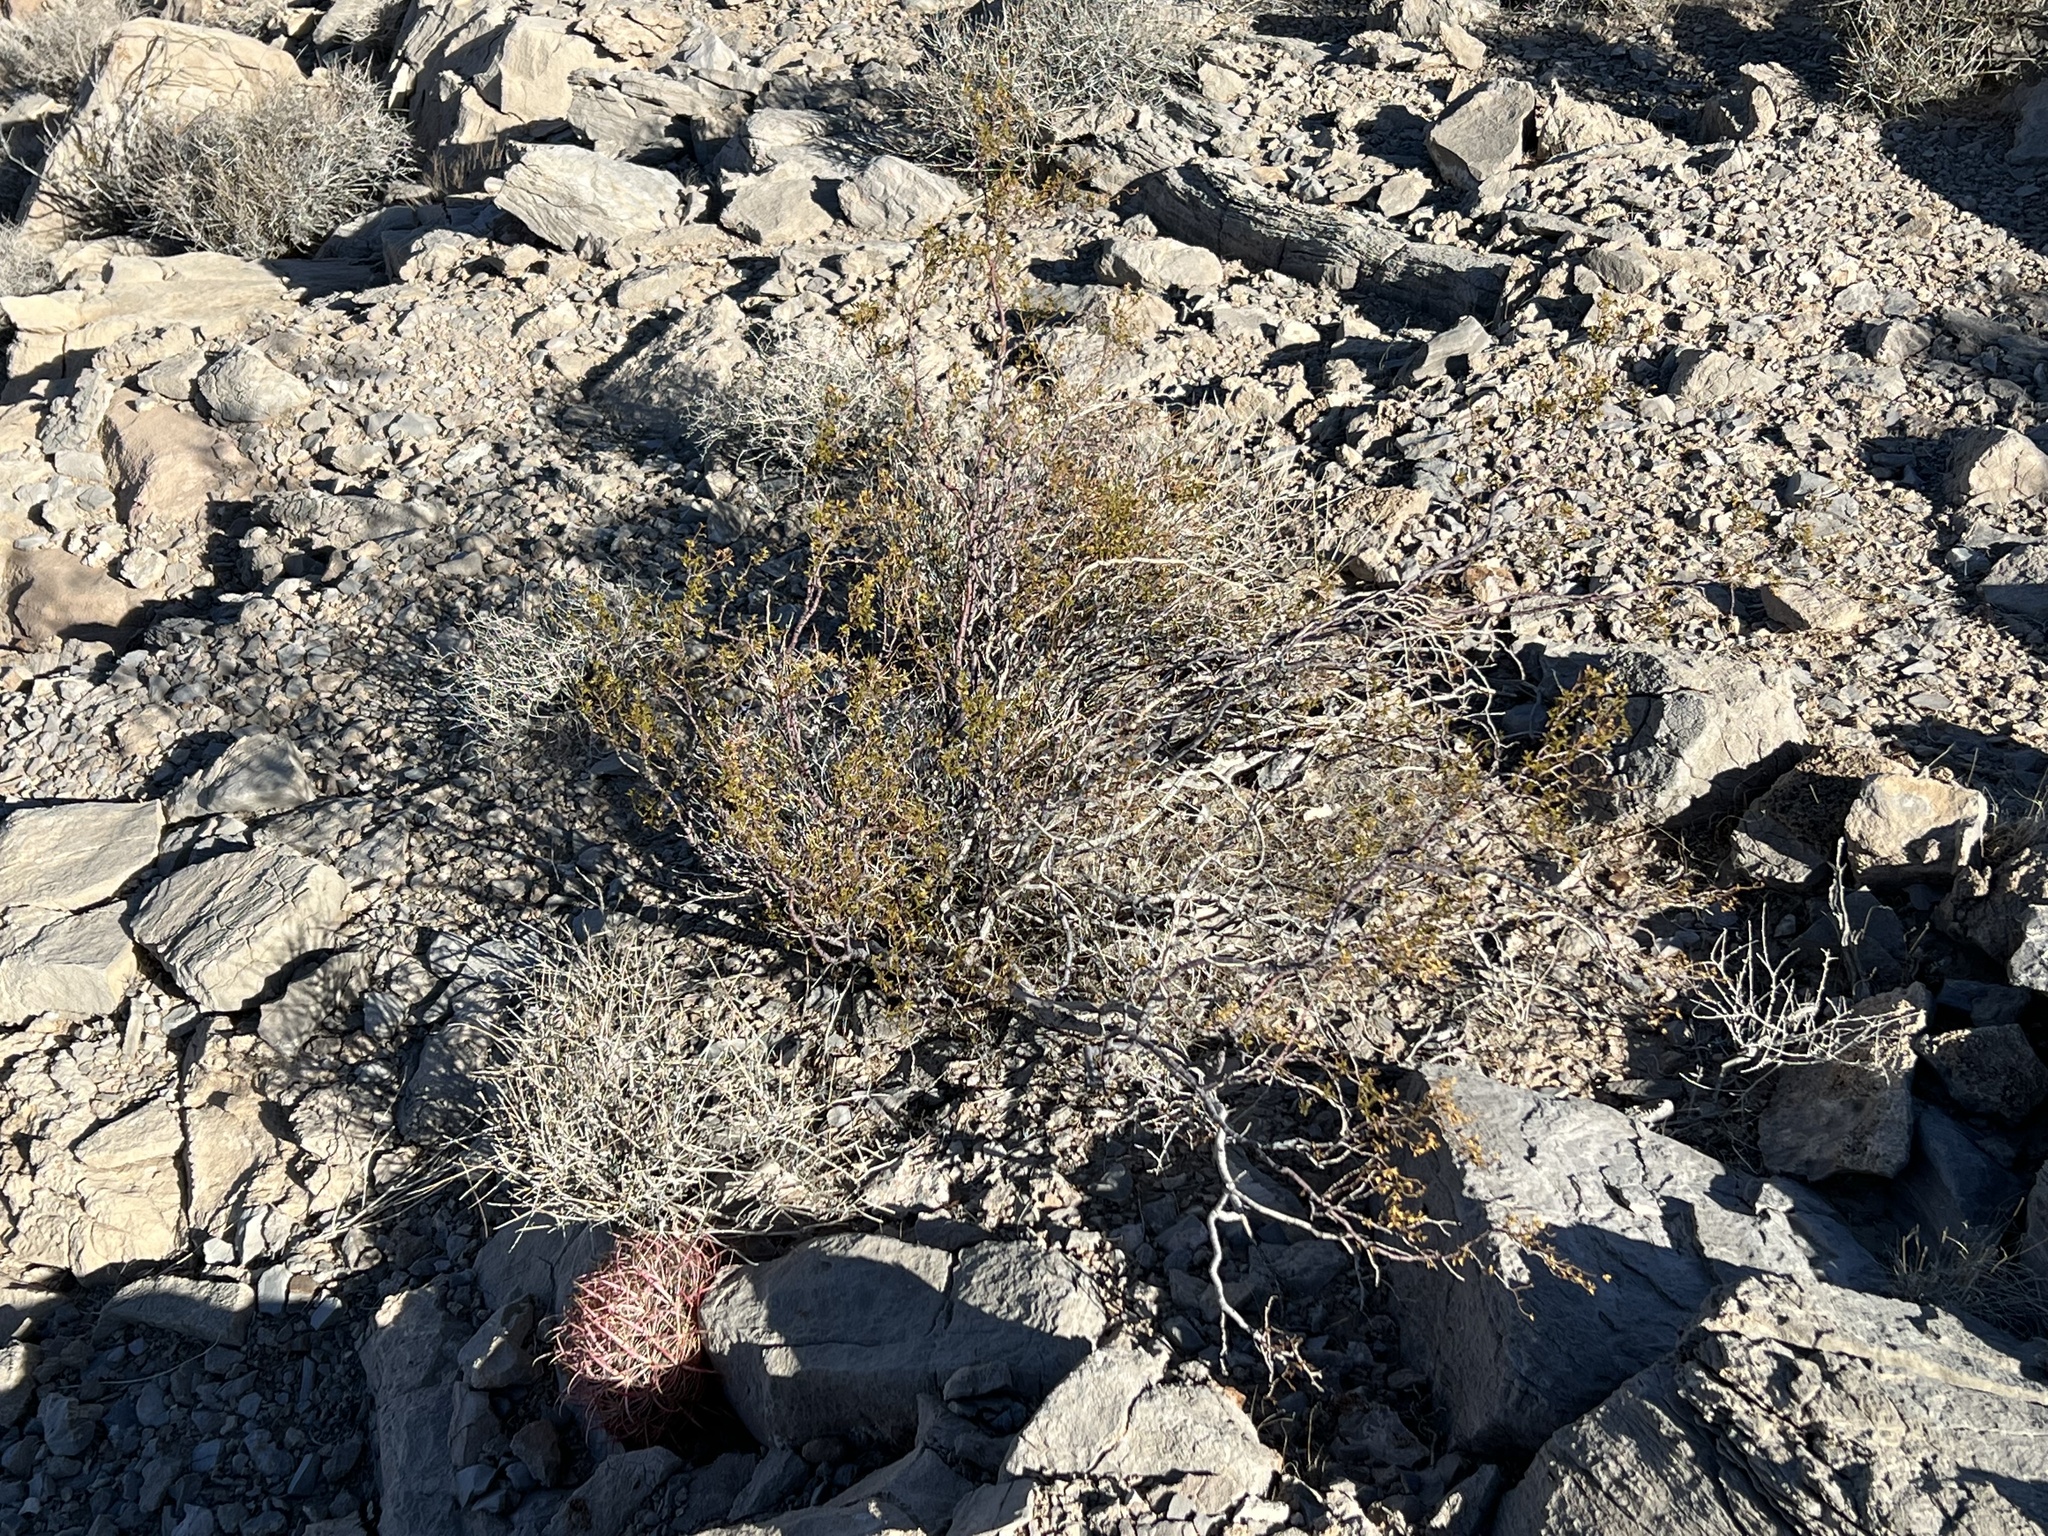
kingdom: Plantae
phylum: Tracheophyta
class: Magnoliopsida
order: Zygophyllales
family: Zygophyllaceae
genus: Larrea
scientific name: Larrea tridentata
